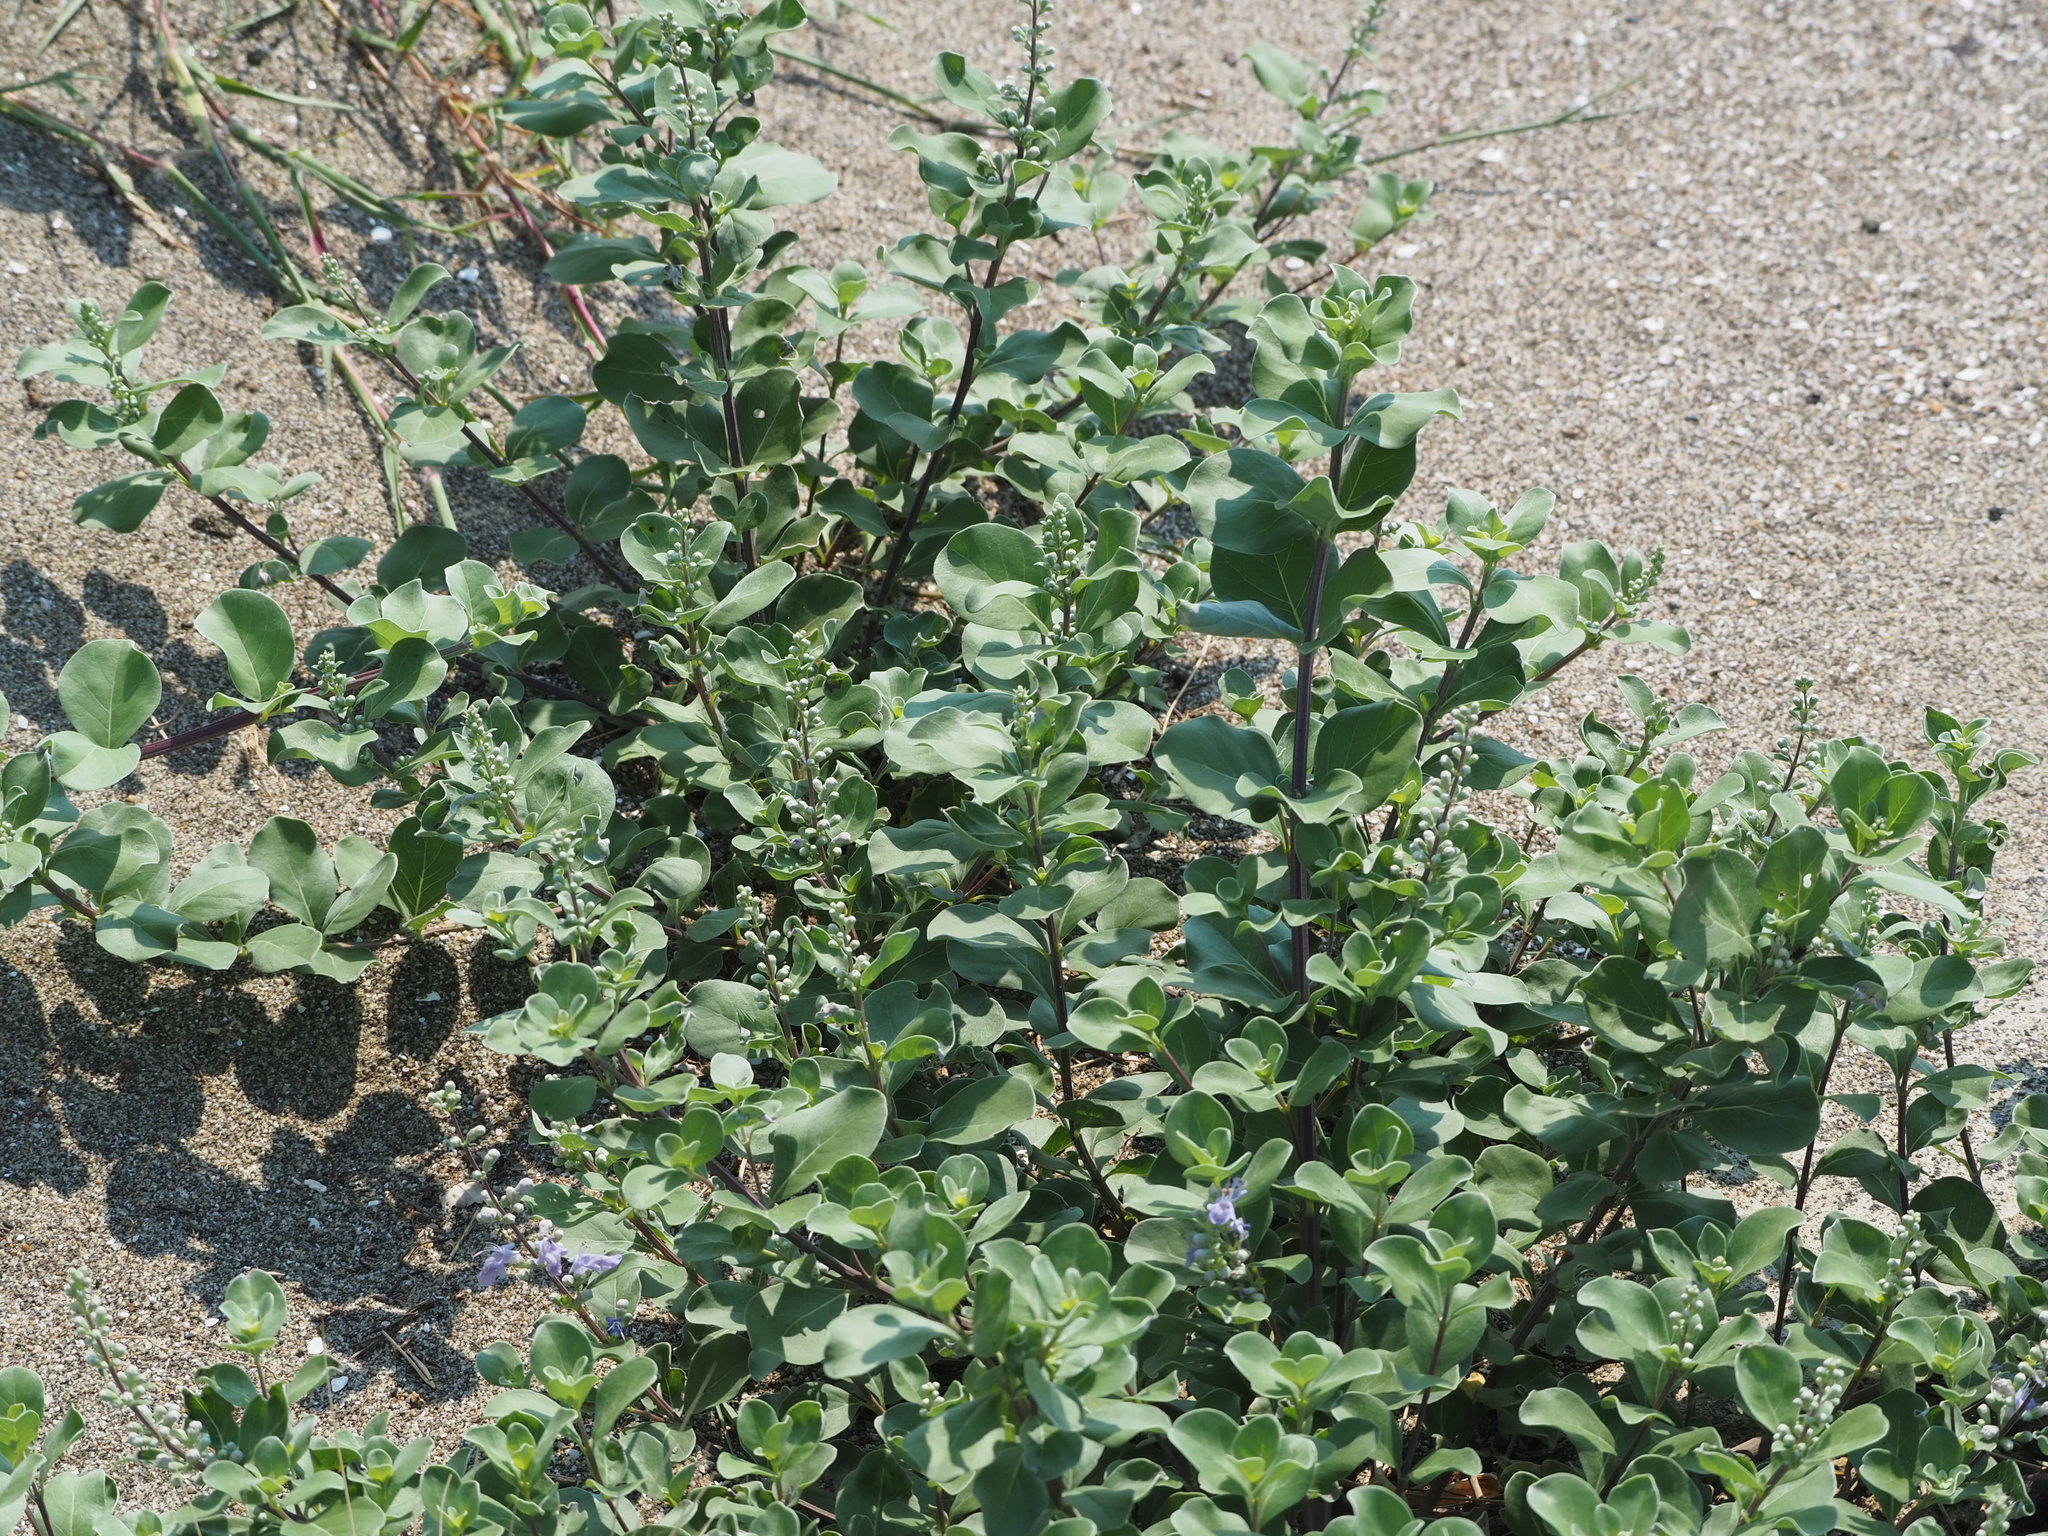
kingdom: Plantae
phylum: Tracheophyta
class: Magnoliopsida
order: Lamiales
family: Lamiaceae
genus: Vitex
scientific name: Vitex rotundifolia
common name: Beach vitex
